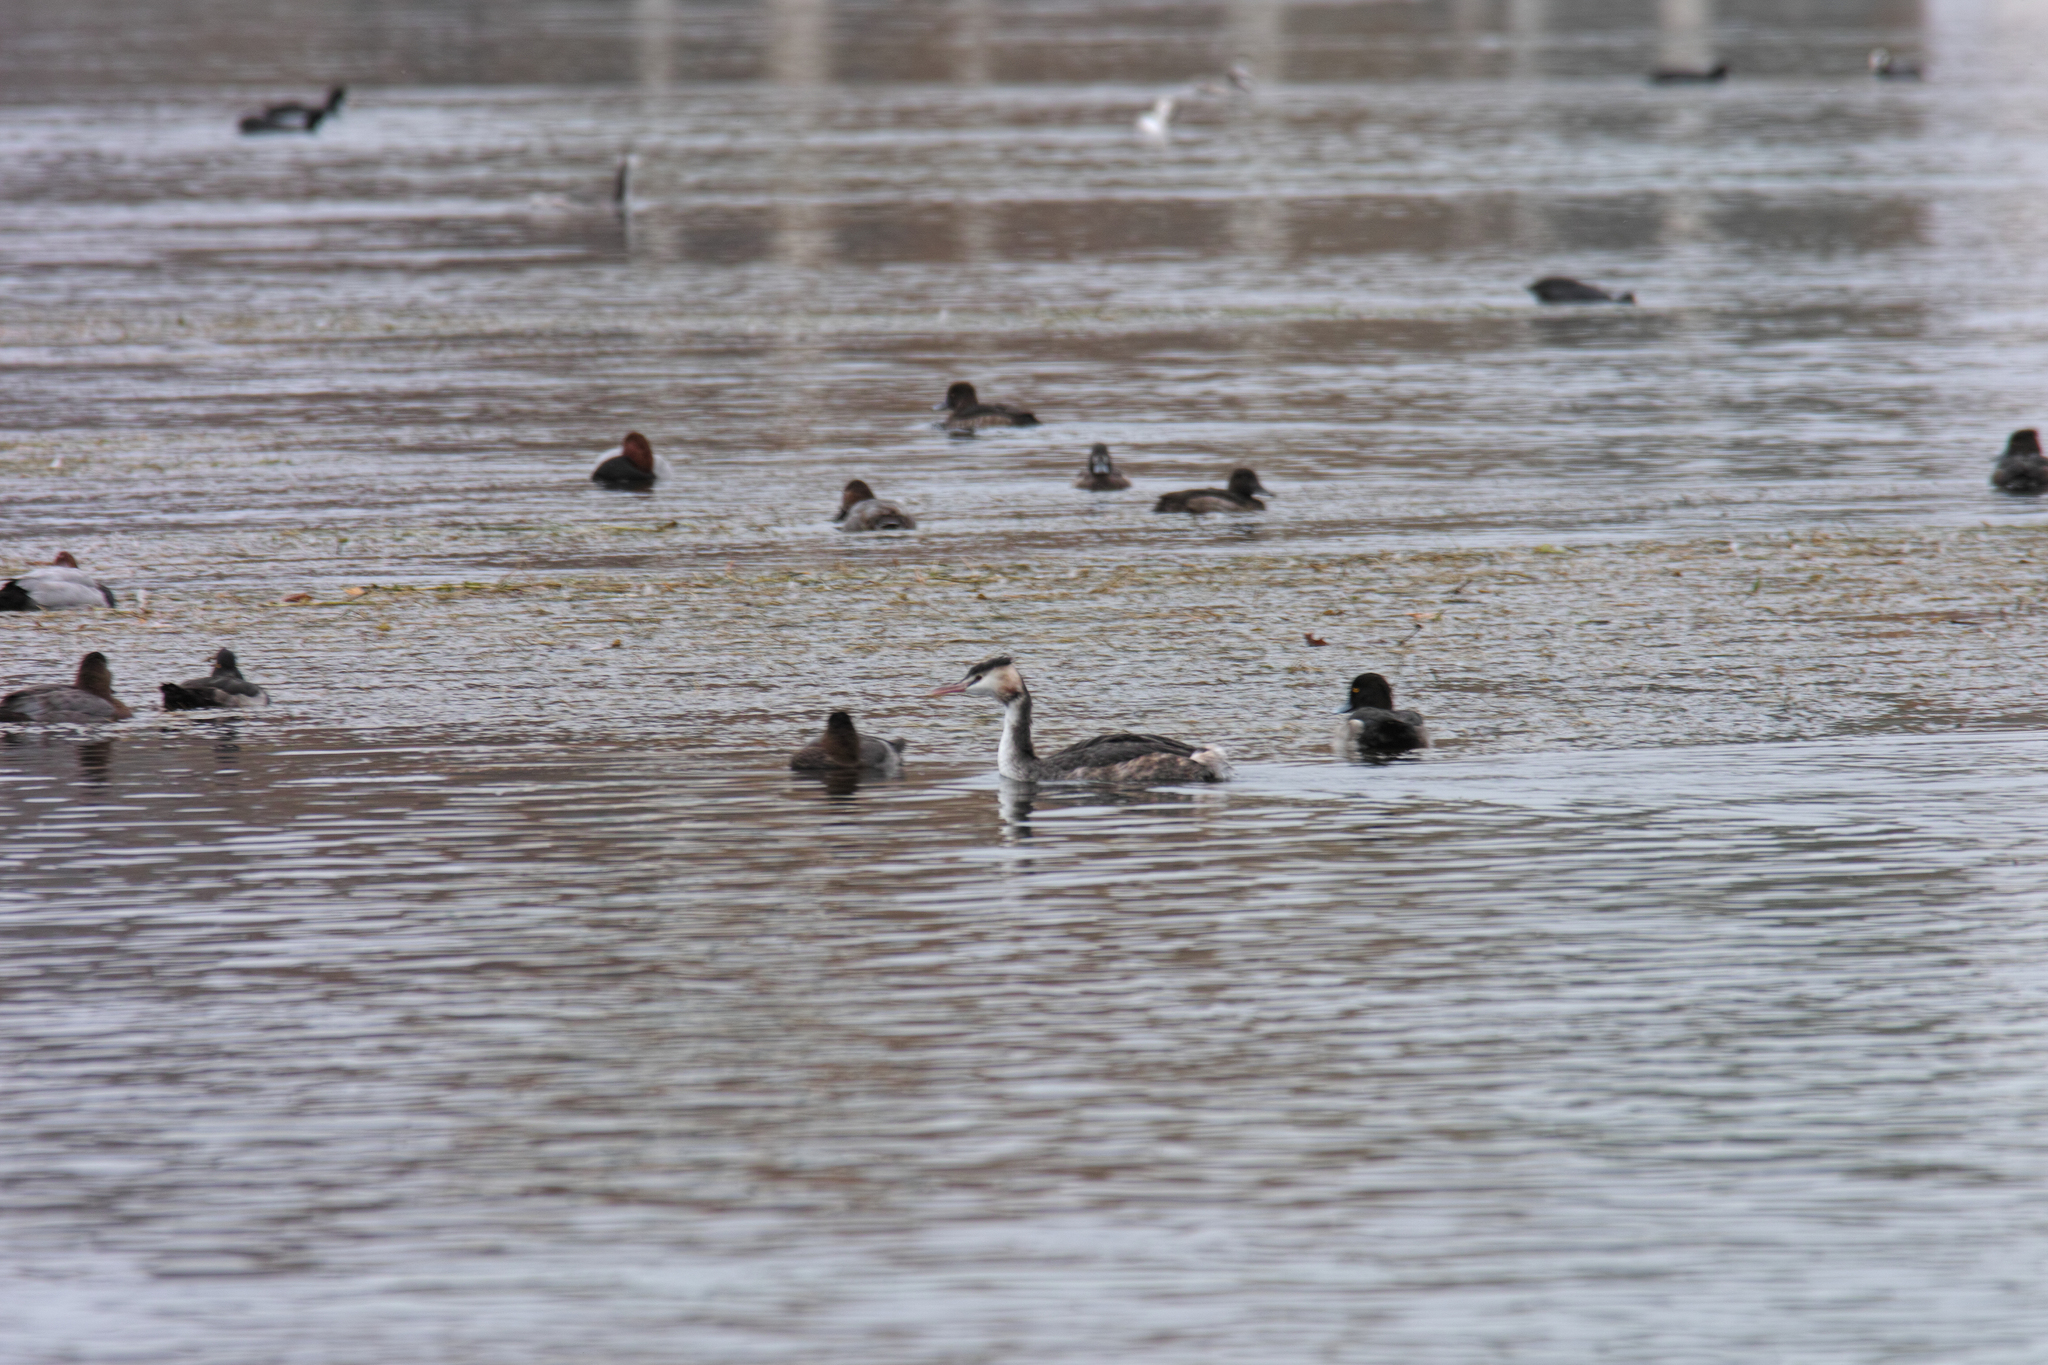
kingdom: Animalia
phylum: Chordata
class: Aves
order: Podicipediformes
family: Podicipedidae
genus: Podiceps
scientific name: Podiceps cristatus
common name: Great crested grebe
